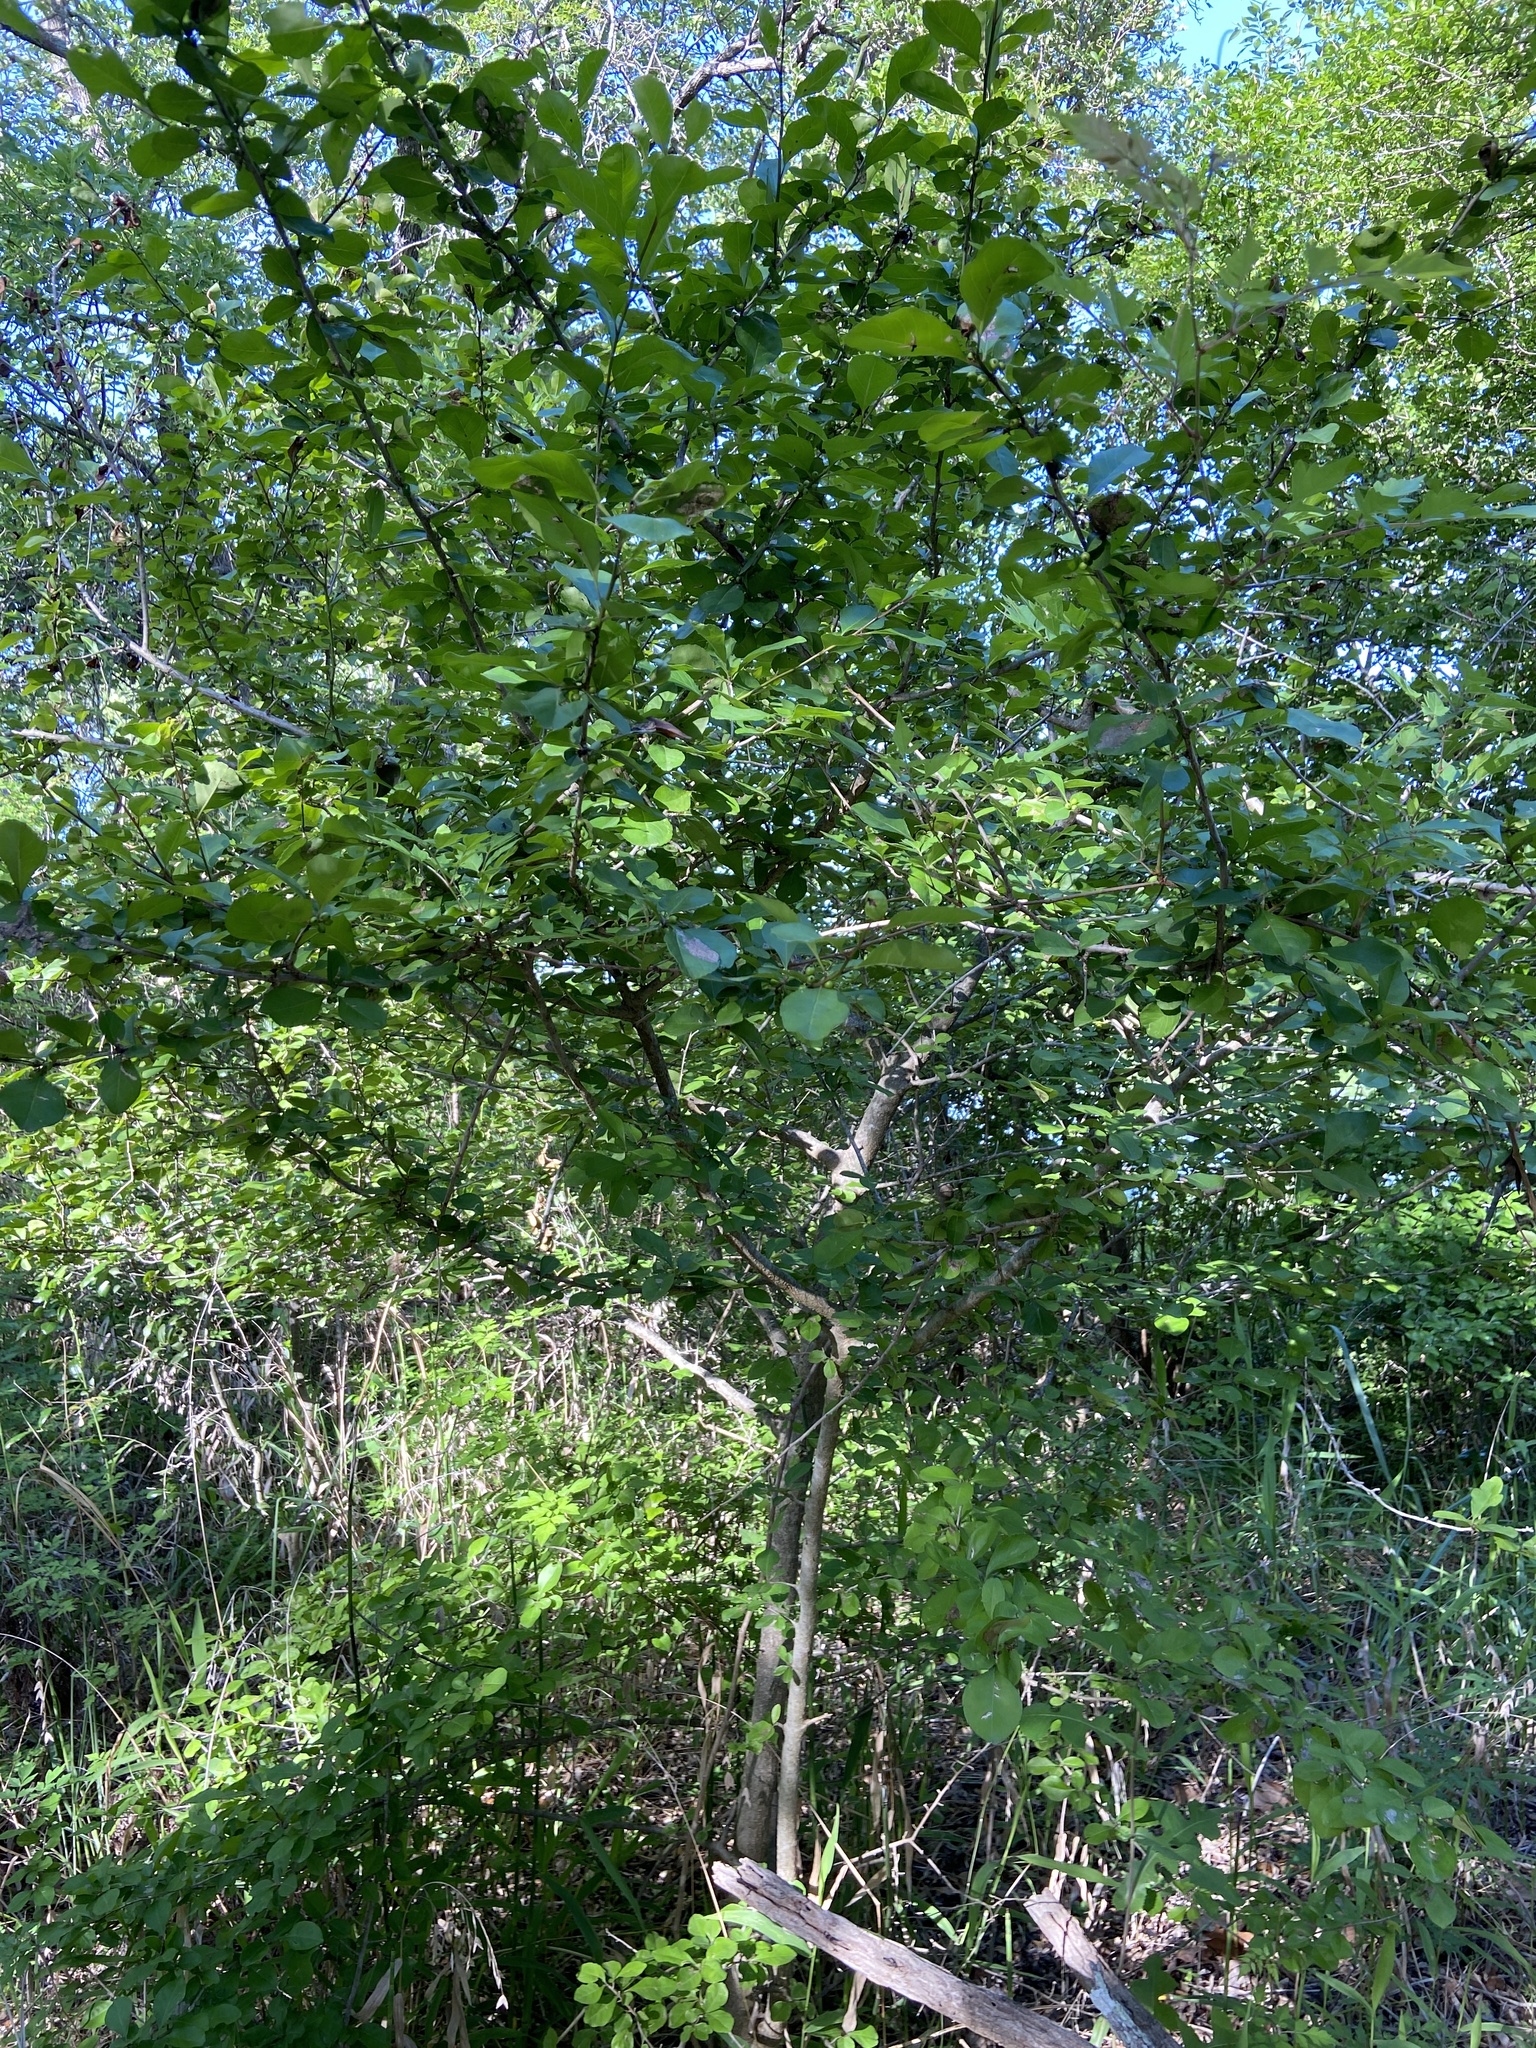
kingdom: Plantae
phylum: Tracheophyta
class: Magnoliopsida
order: Aquifoliales
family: Aquifoliaceae
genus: Ilex
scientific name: Ilex decidua
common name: Possum-haw
